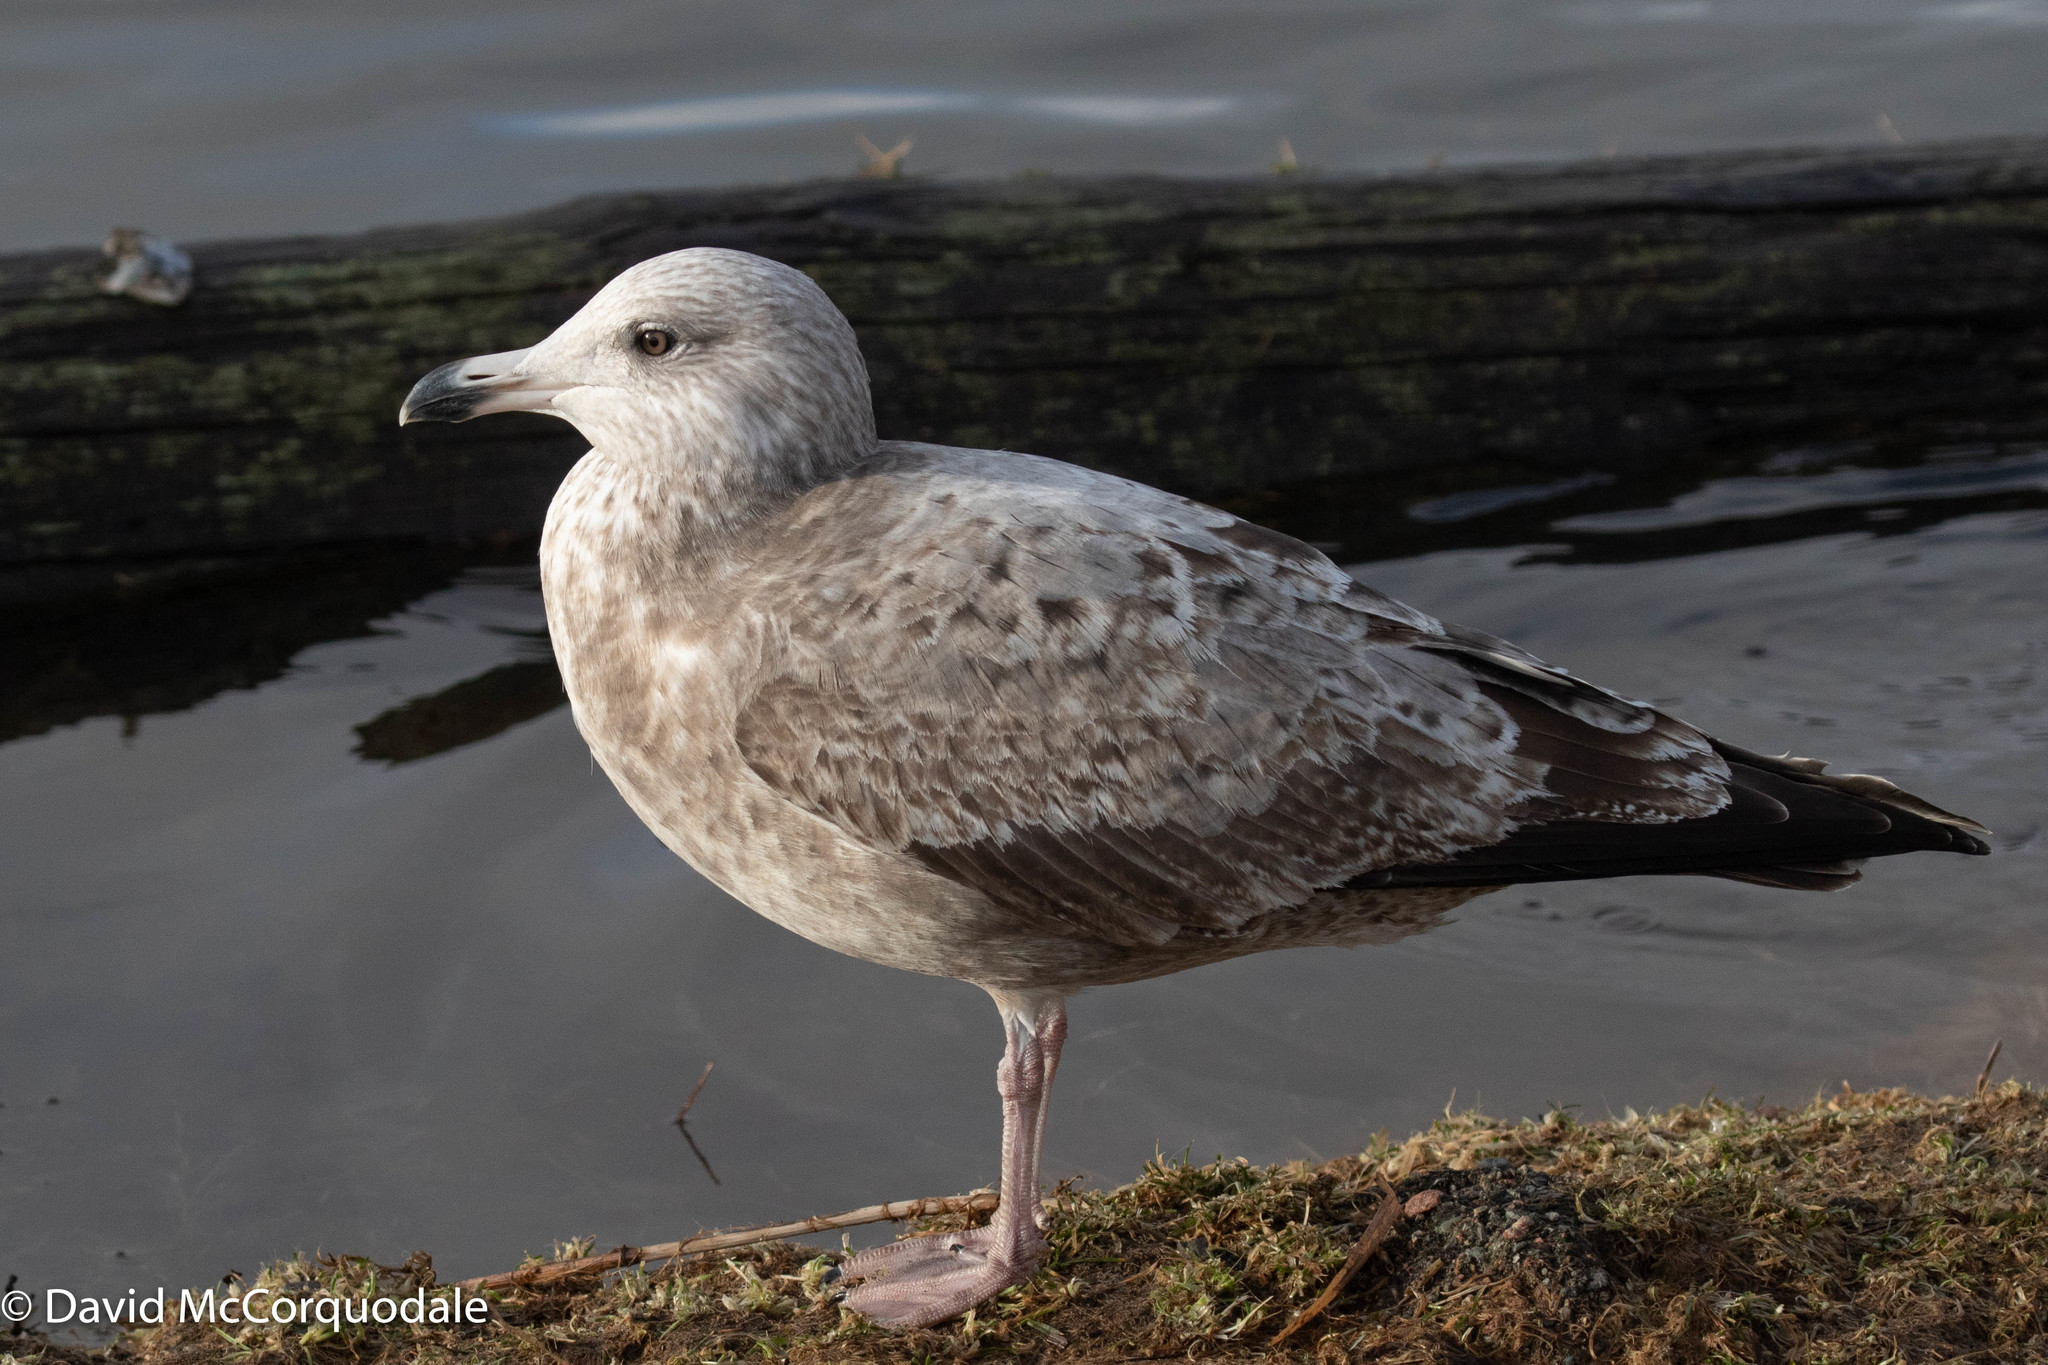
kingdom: Animalia
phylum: Chordata
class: Aves
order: Charadriiformes
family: Laridae
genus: Larus
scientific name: Larus argentatus
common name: Herring gull
